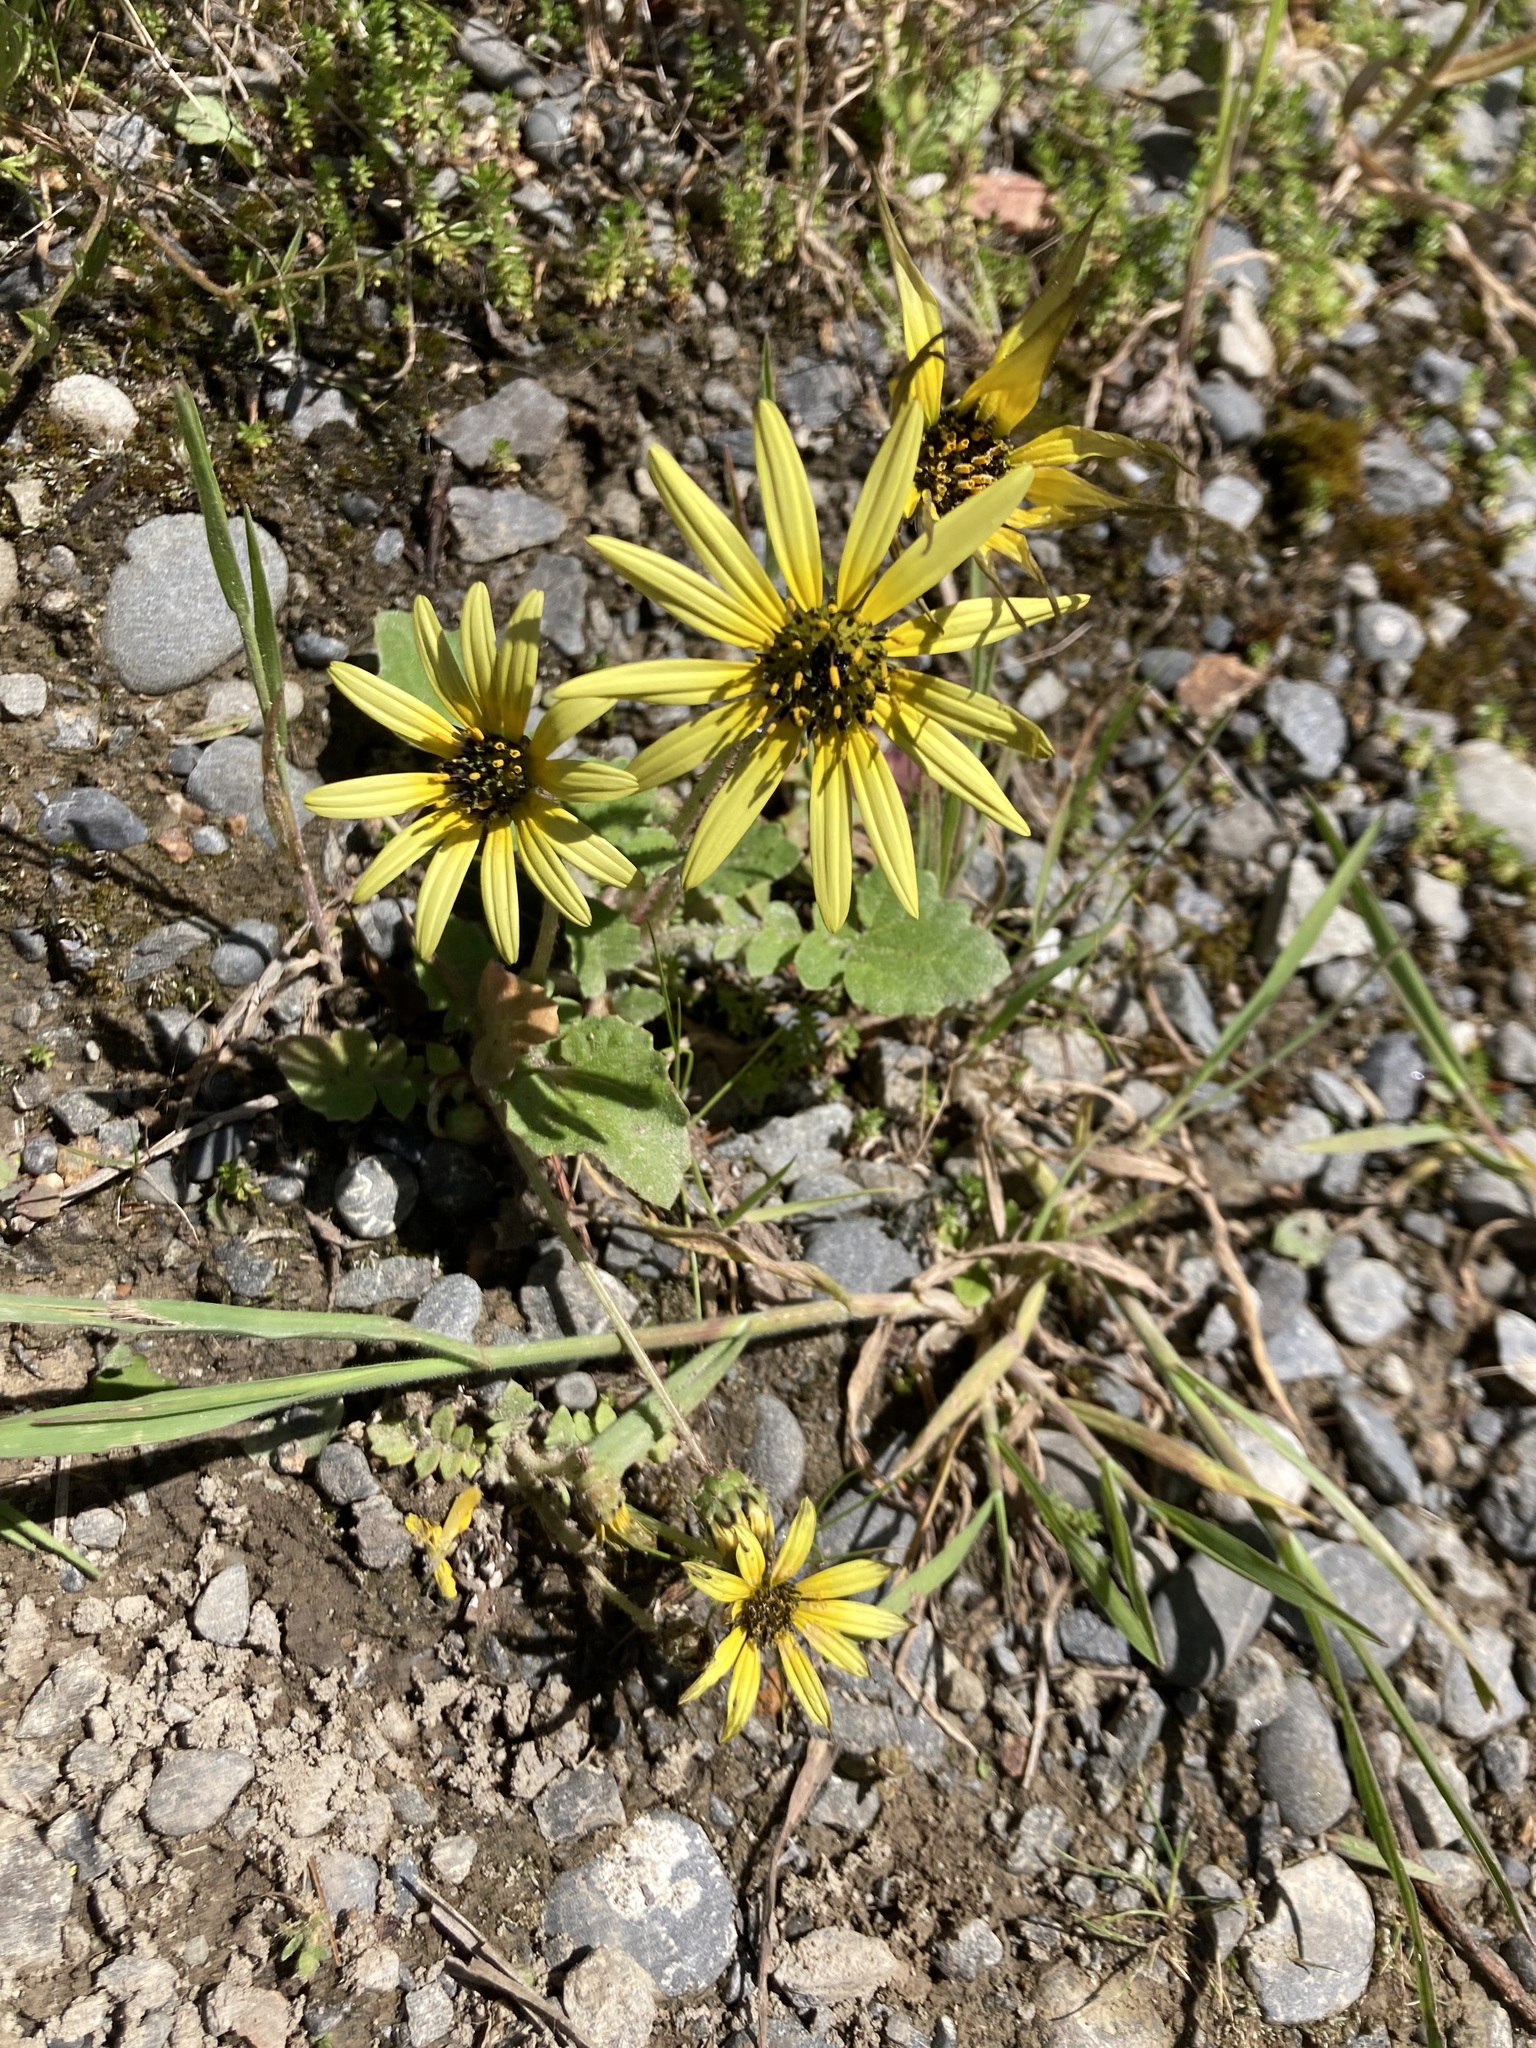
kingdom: Plantae
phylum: Tracheophyta
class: Magnoliopsida
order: Asterales
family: Asteraceae
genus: Arctotheca
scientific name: Arctotheca calendula
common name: Capeweed
